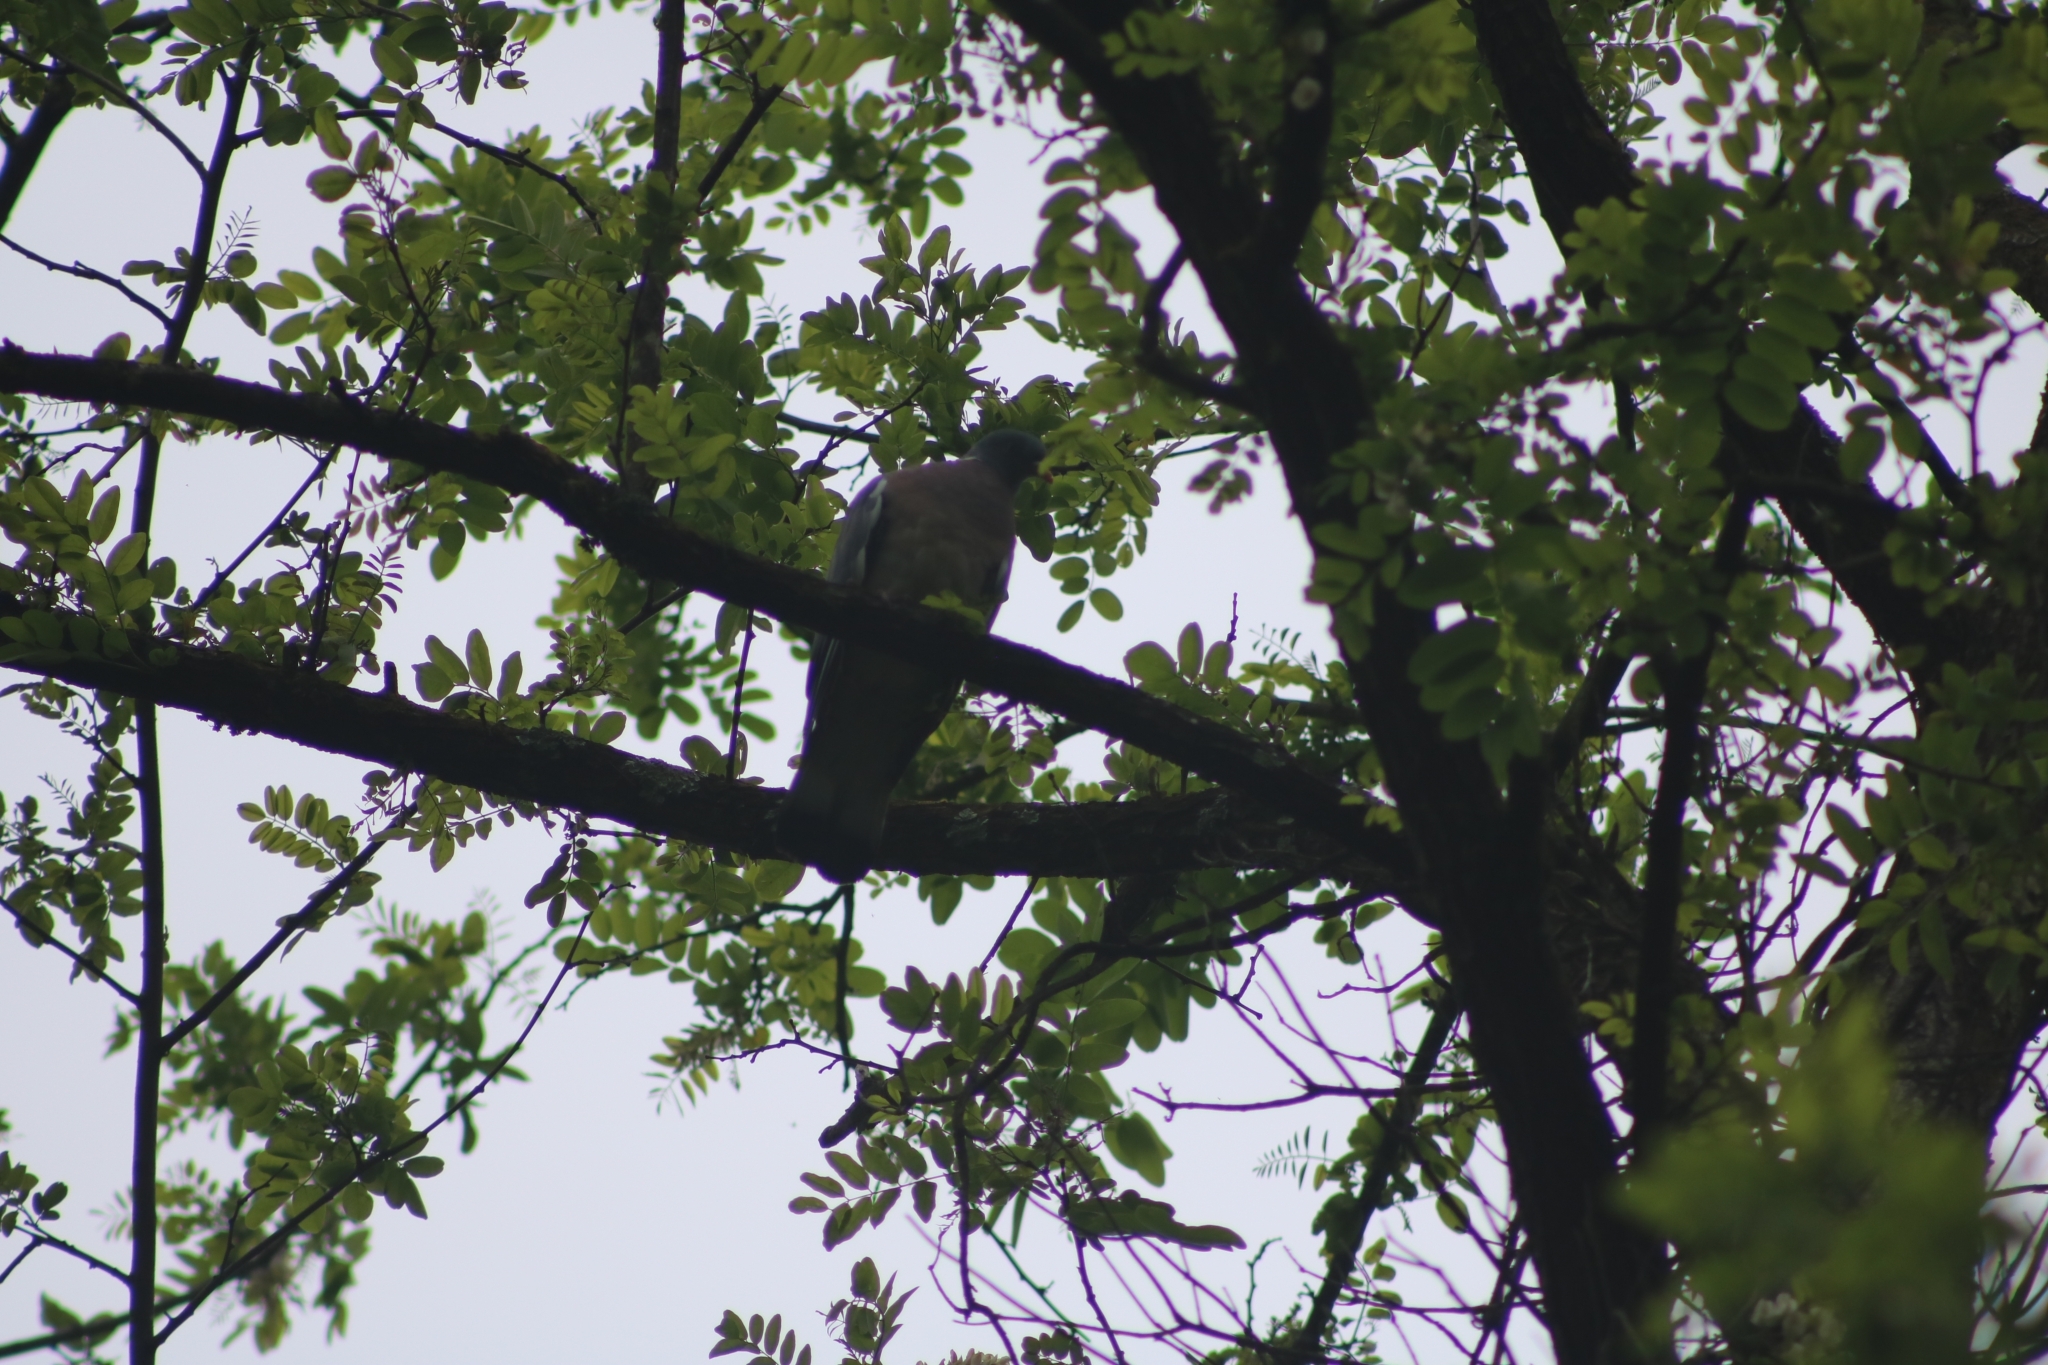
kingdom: Animalia
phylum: Chordata
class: Aves
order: Columbiformes
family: Columbidae
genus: Columba
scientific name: Columba palumbus
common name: Common wood pigeon
